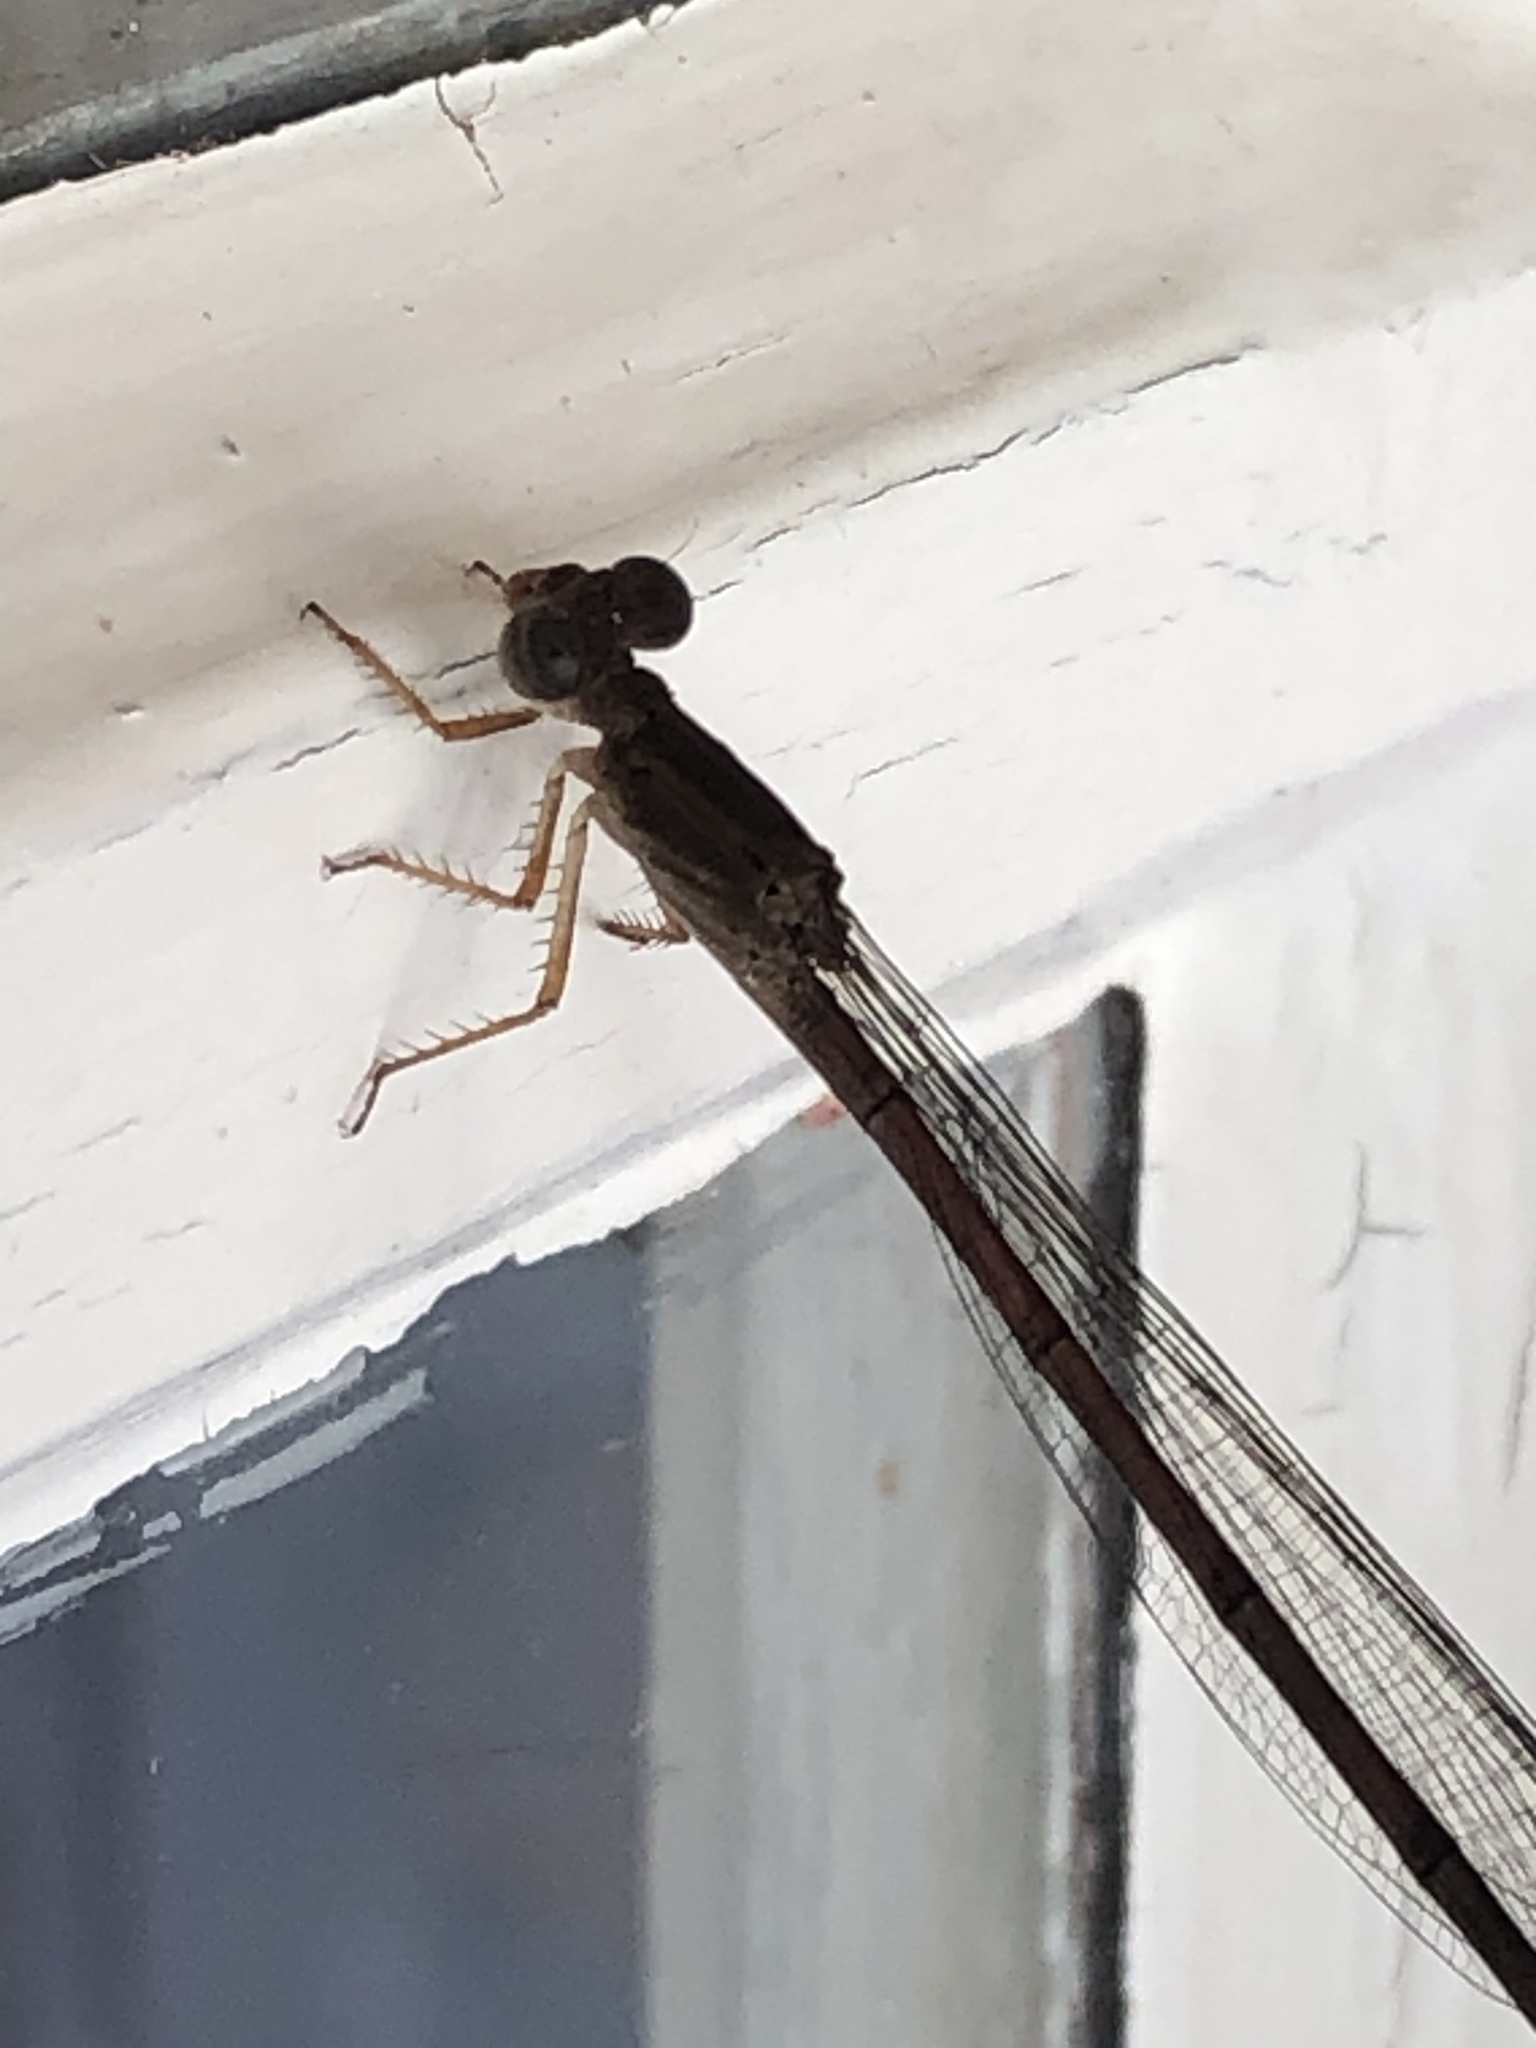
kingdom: Animalia
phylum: Arthropoda
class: Insecta
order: Odonata
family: Coenagrionidae
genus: Ceriagrion
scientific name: Ceriagrion glabrum
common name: Common pond damsel
